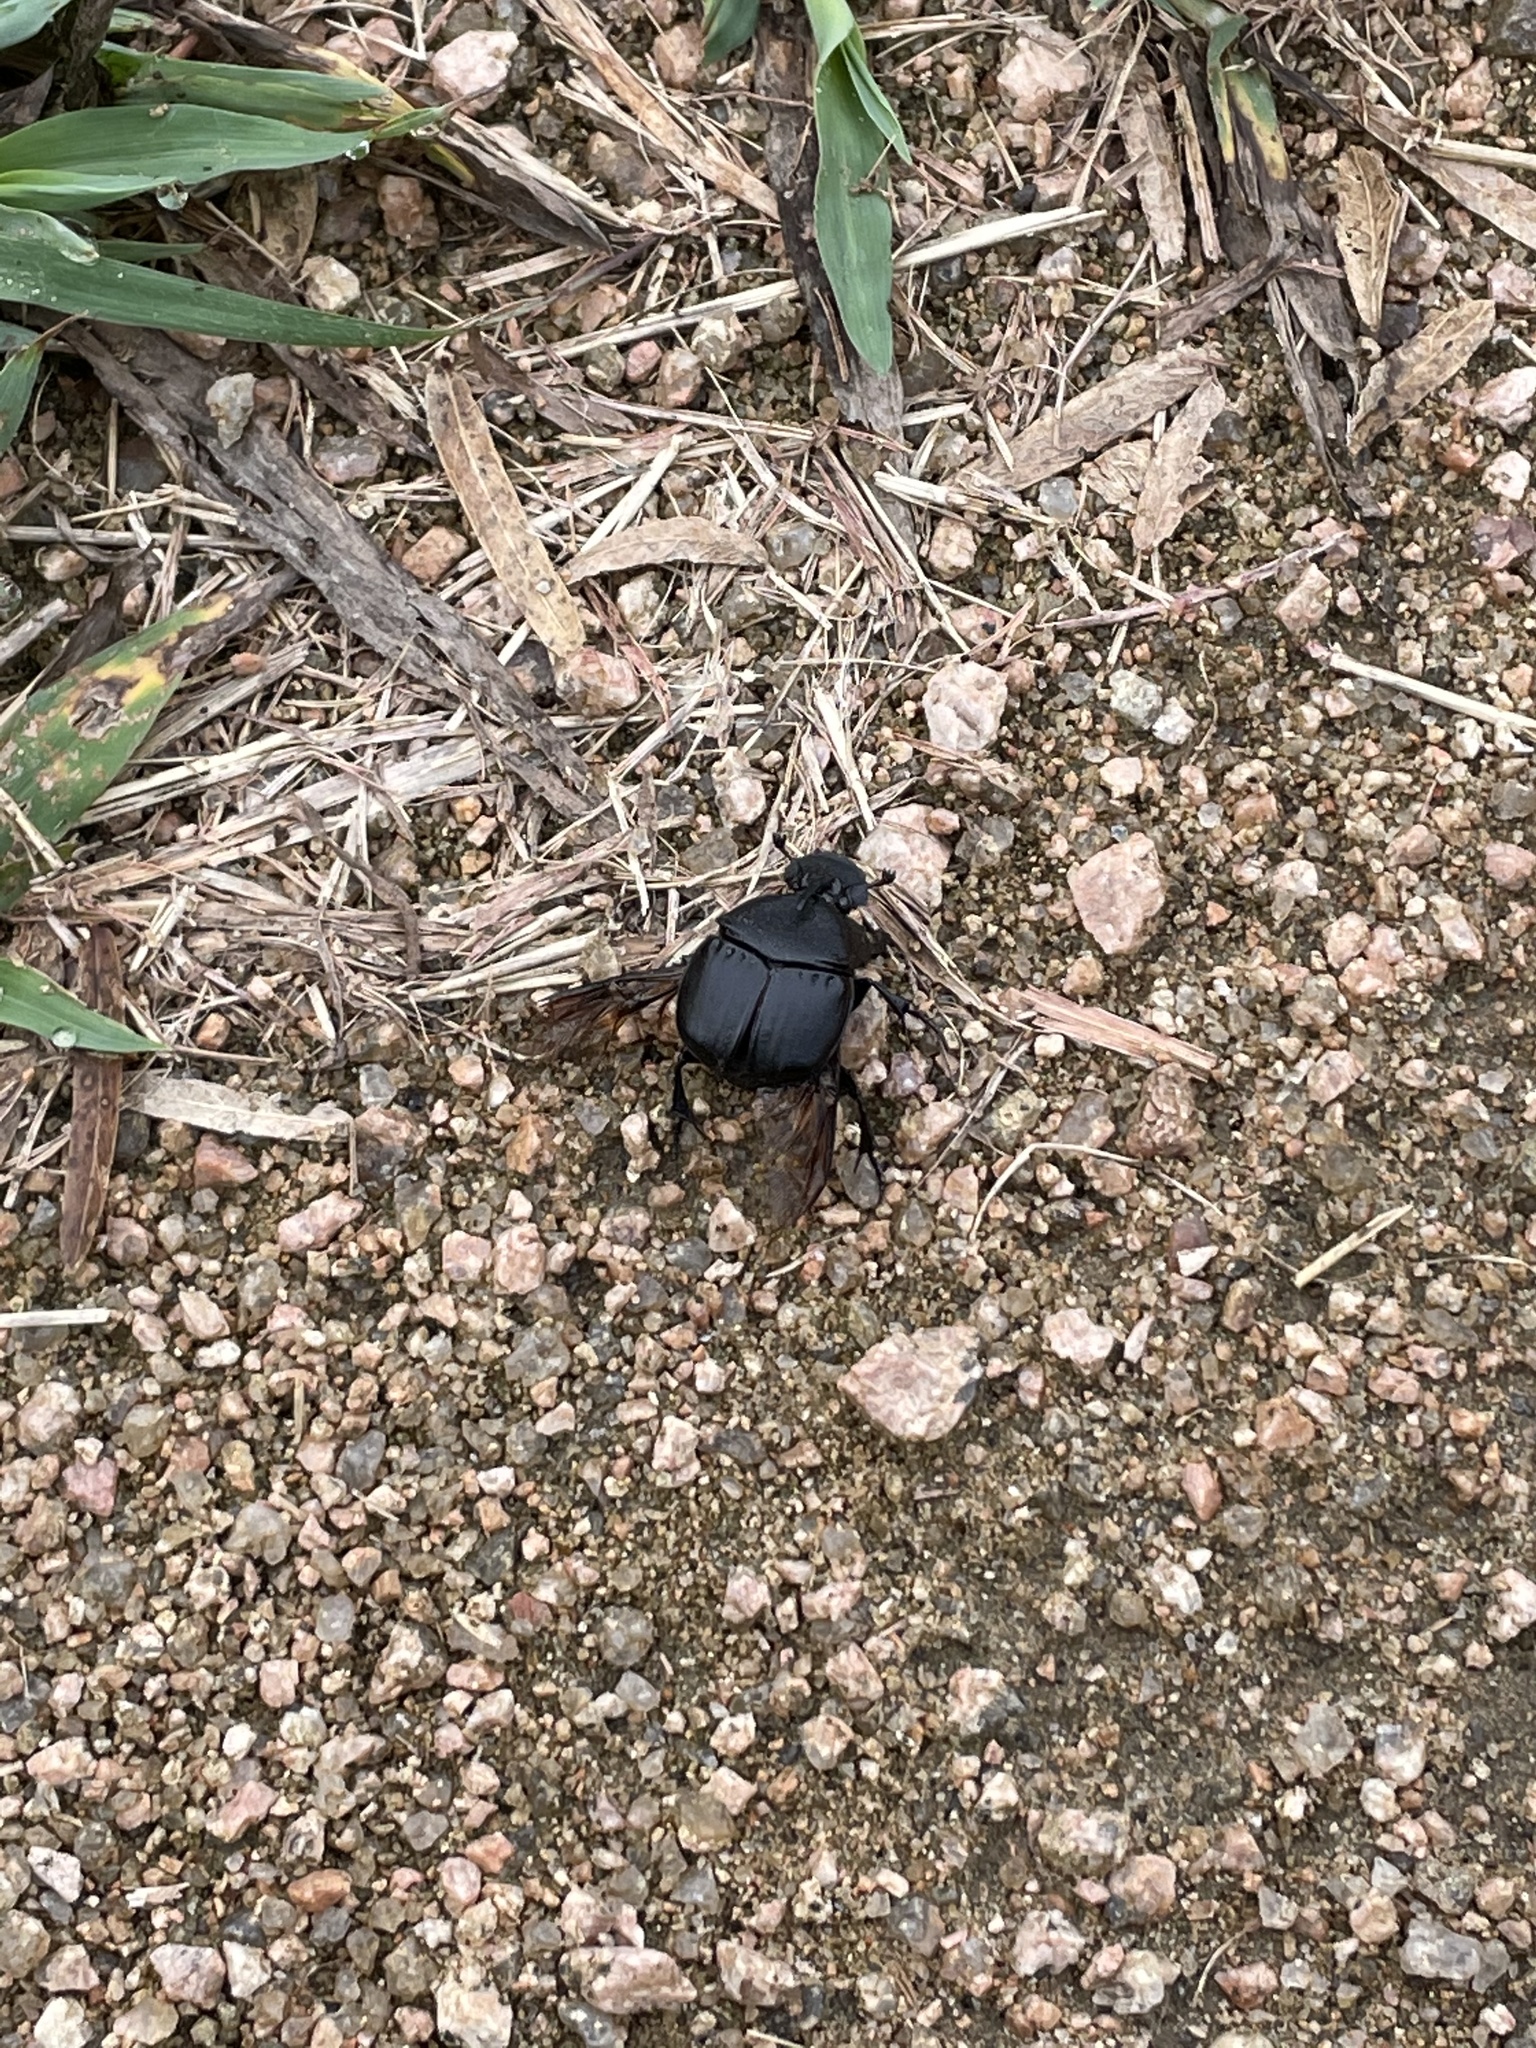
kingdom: Animalia
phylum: Arthropoda
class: Insecta
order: Coleoptera
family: Scarabaeidae
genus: Phanaeus
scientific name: Phanaeus texensis
